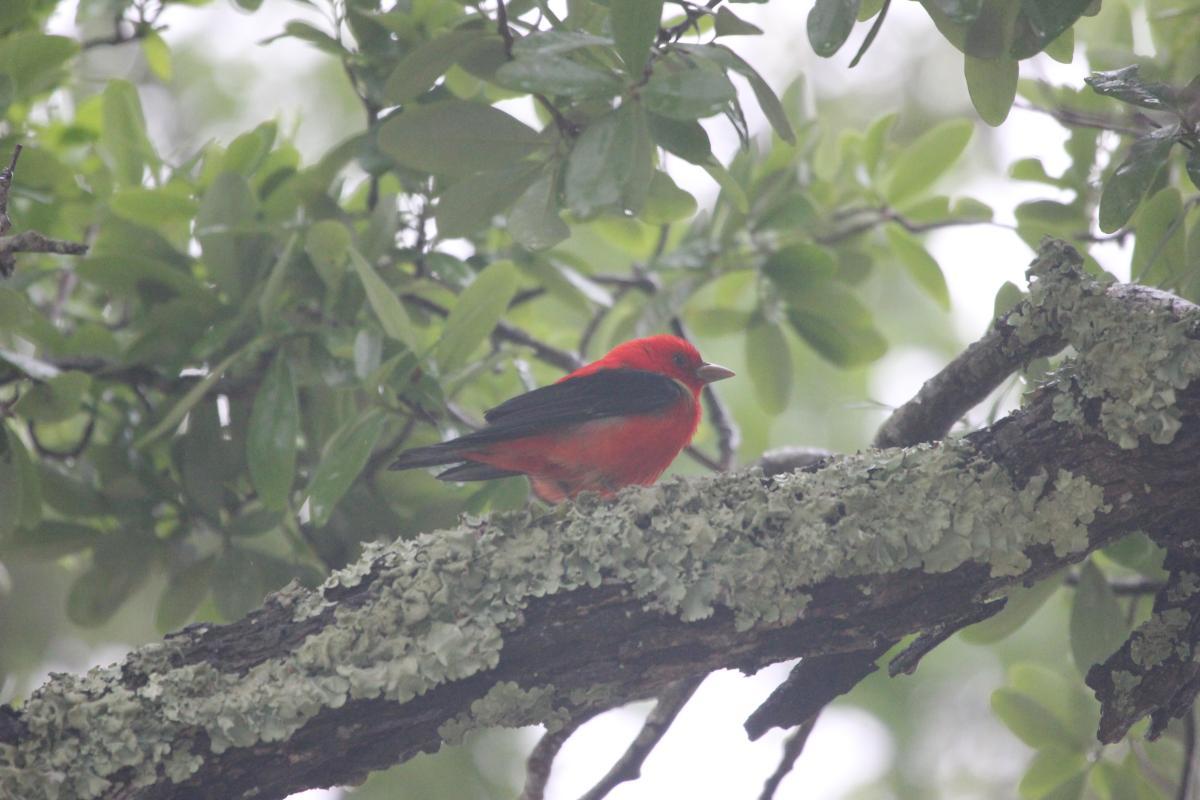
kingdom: Animalia
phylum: Chordata
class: Aves
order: Passeriformes
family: Cardinalidae
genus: Piranga
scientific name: Piranga olivacea
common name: Scarlet tanager
